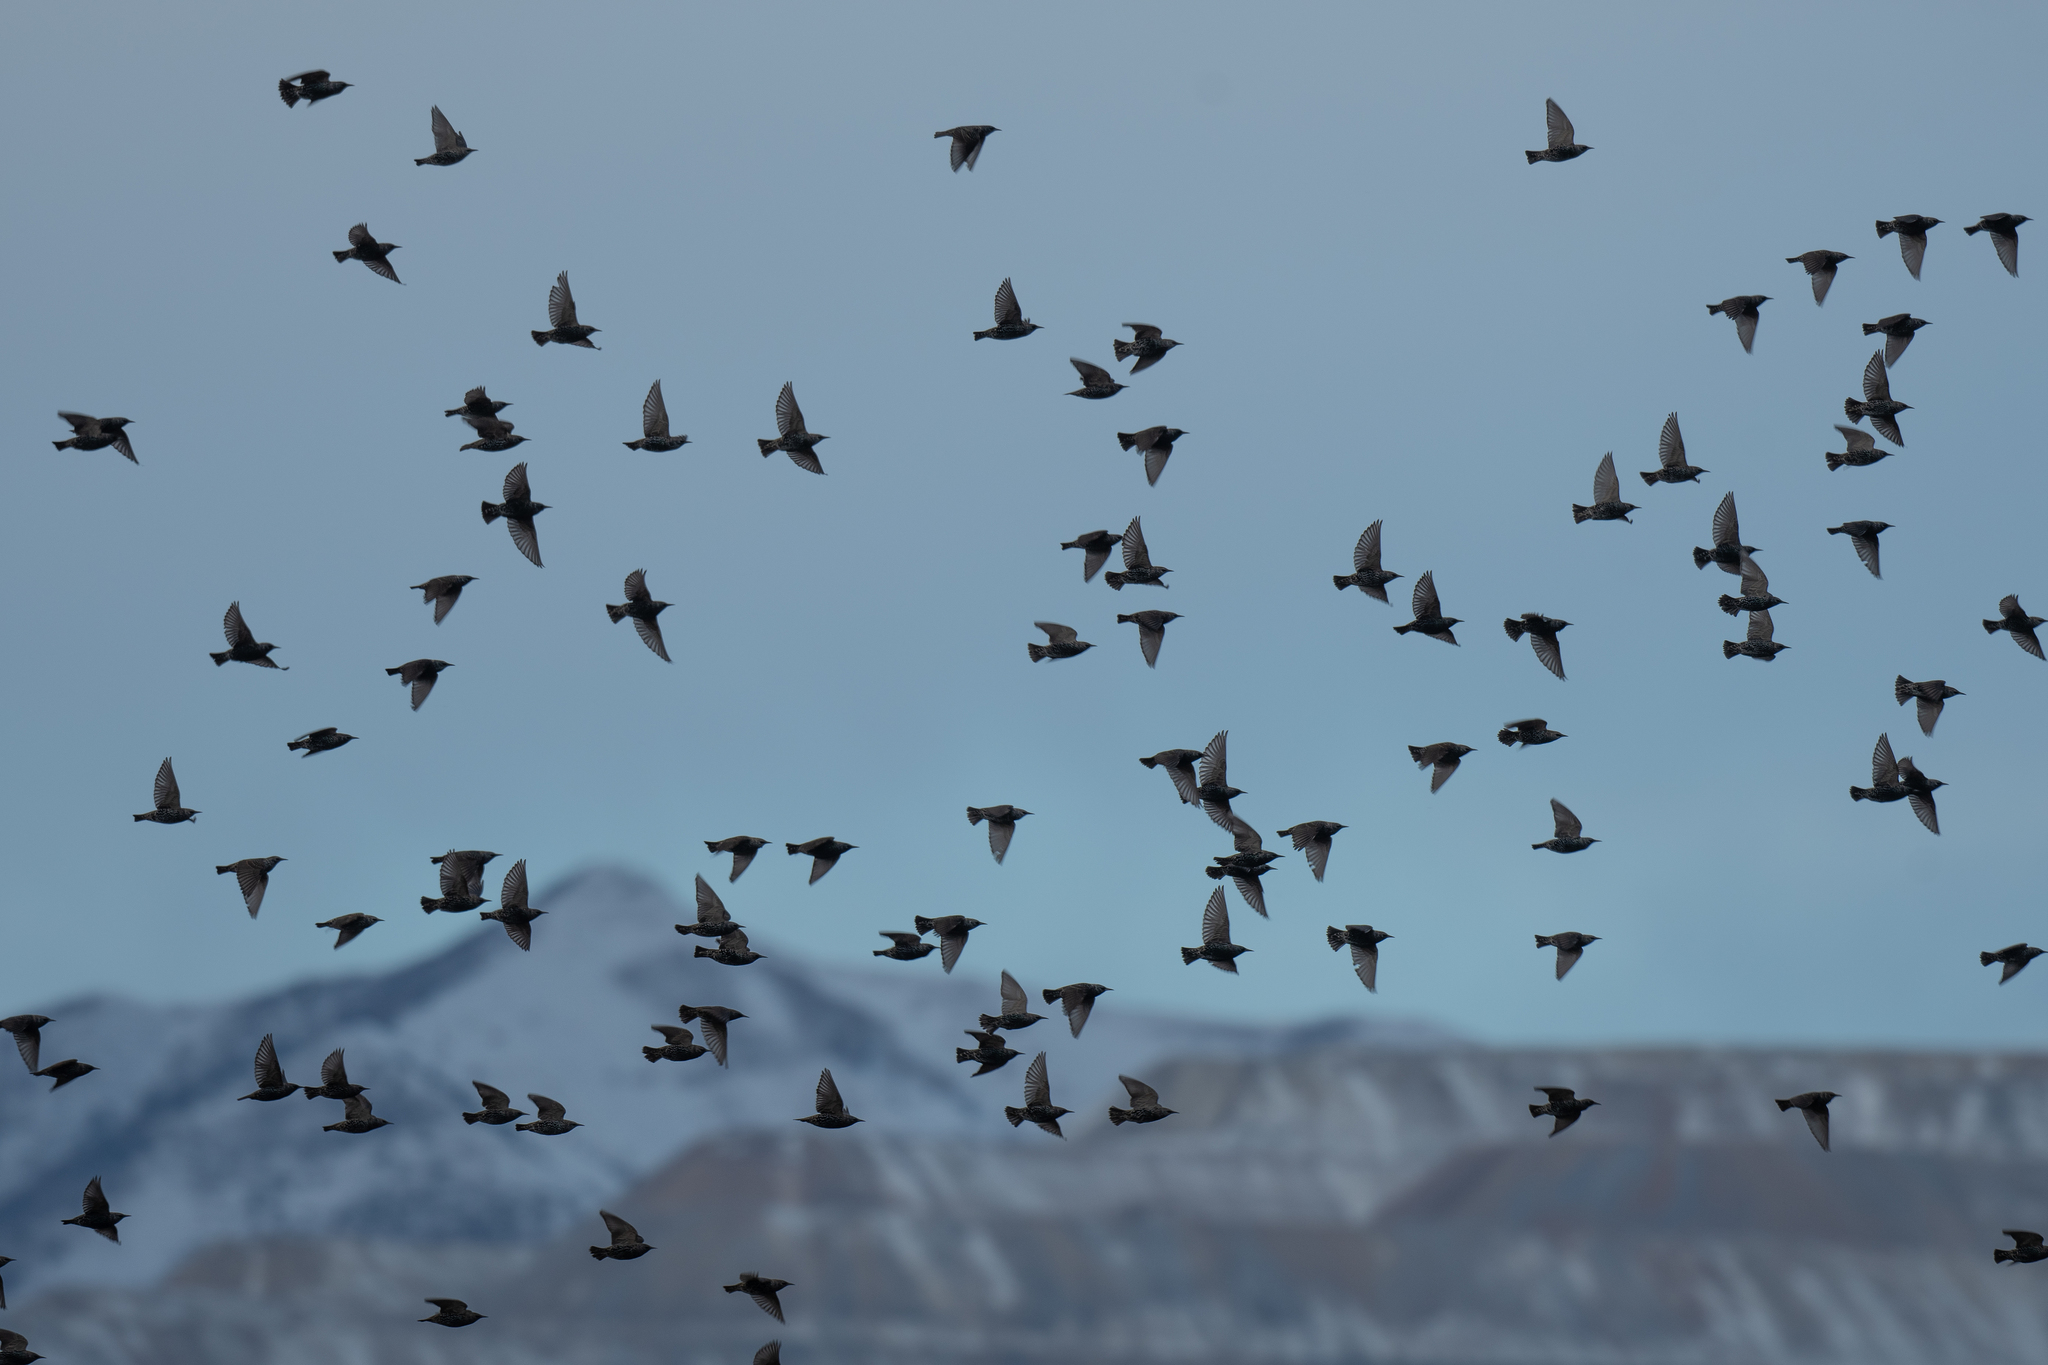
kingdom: Animalia
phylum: Chordata
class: Aves
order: Passeriformes
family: Sturnidae
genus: Sturnus
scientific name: Sturnus vulgaris
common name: Common starling
